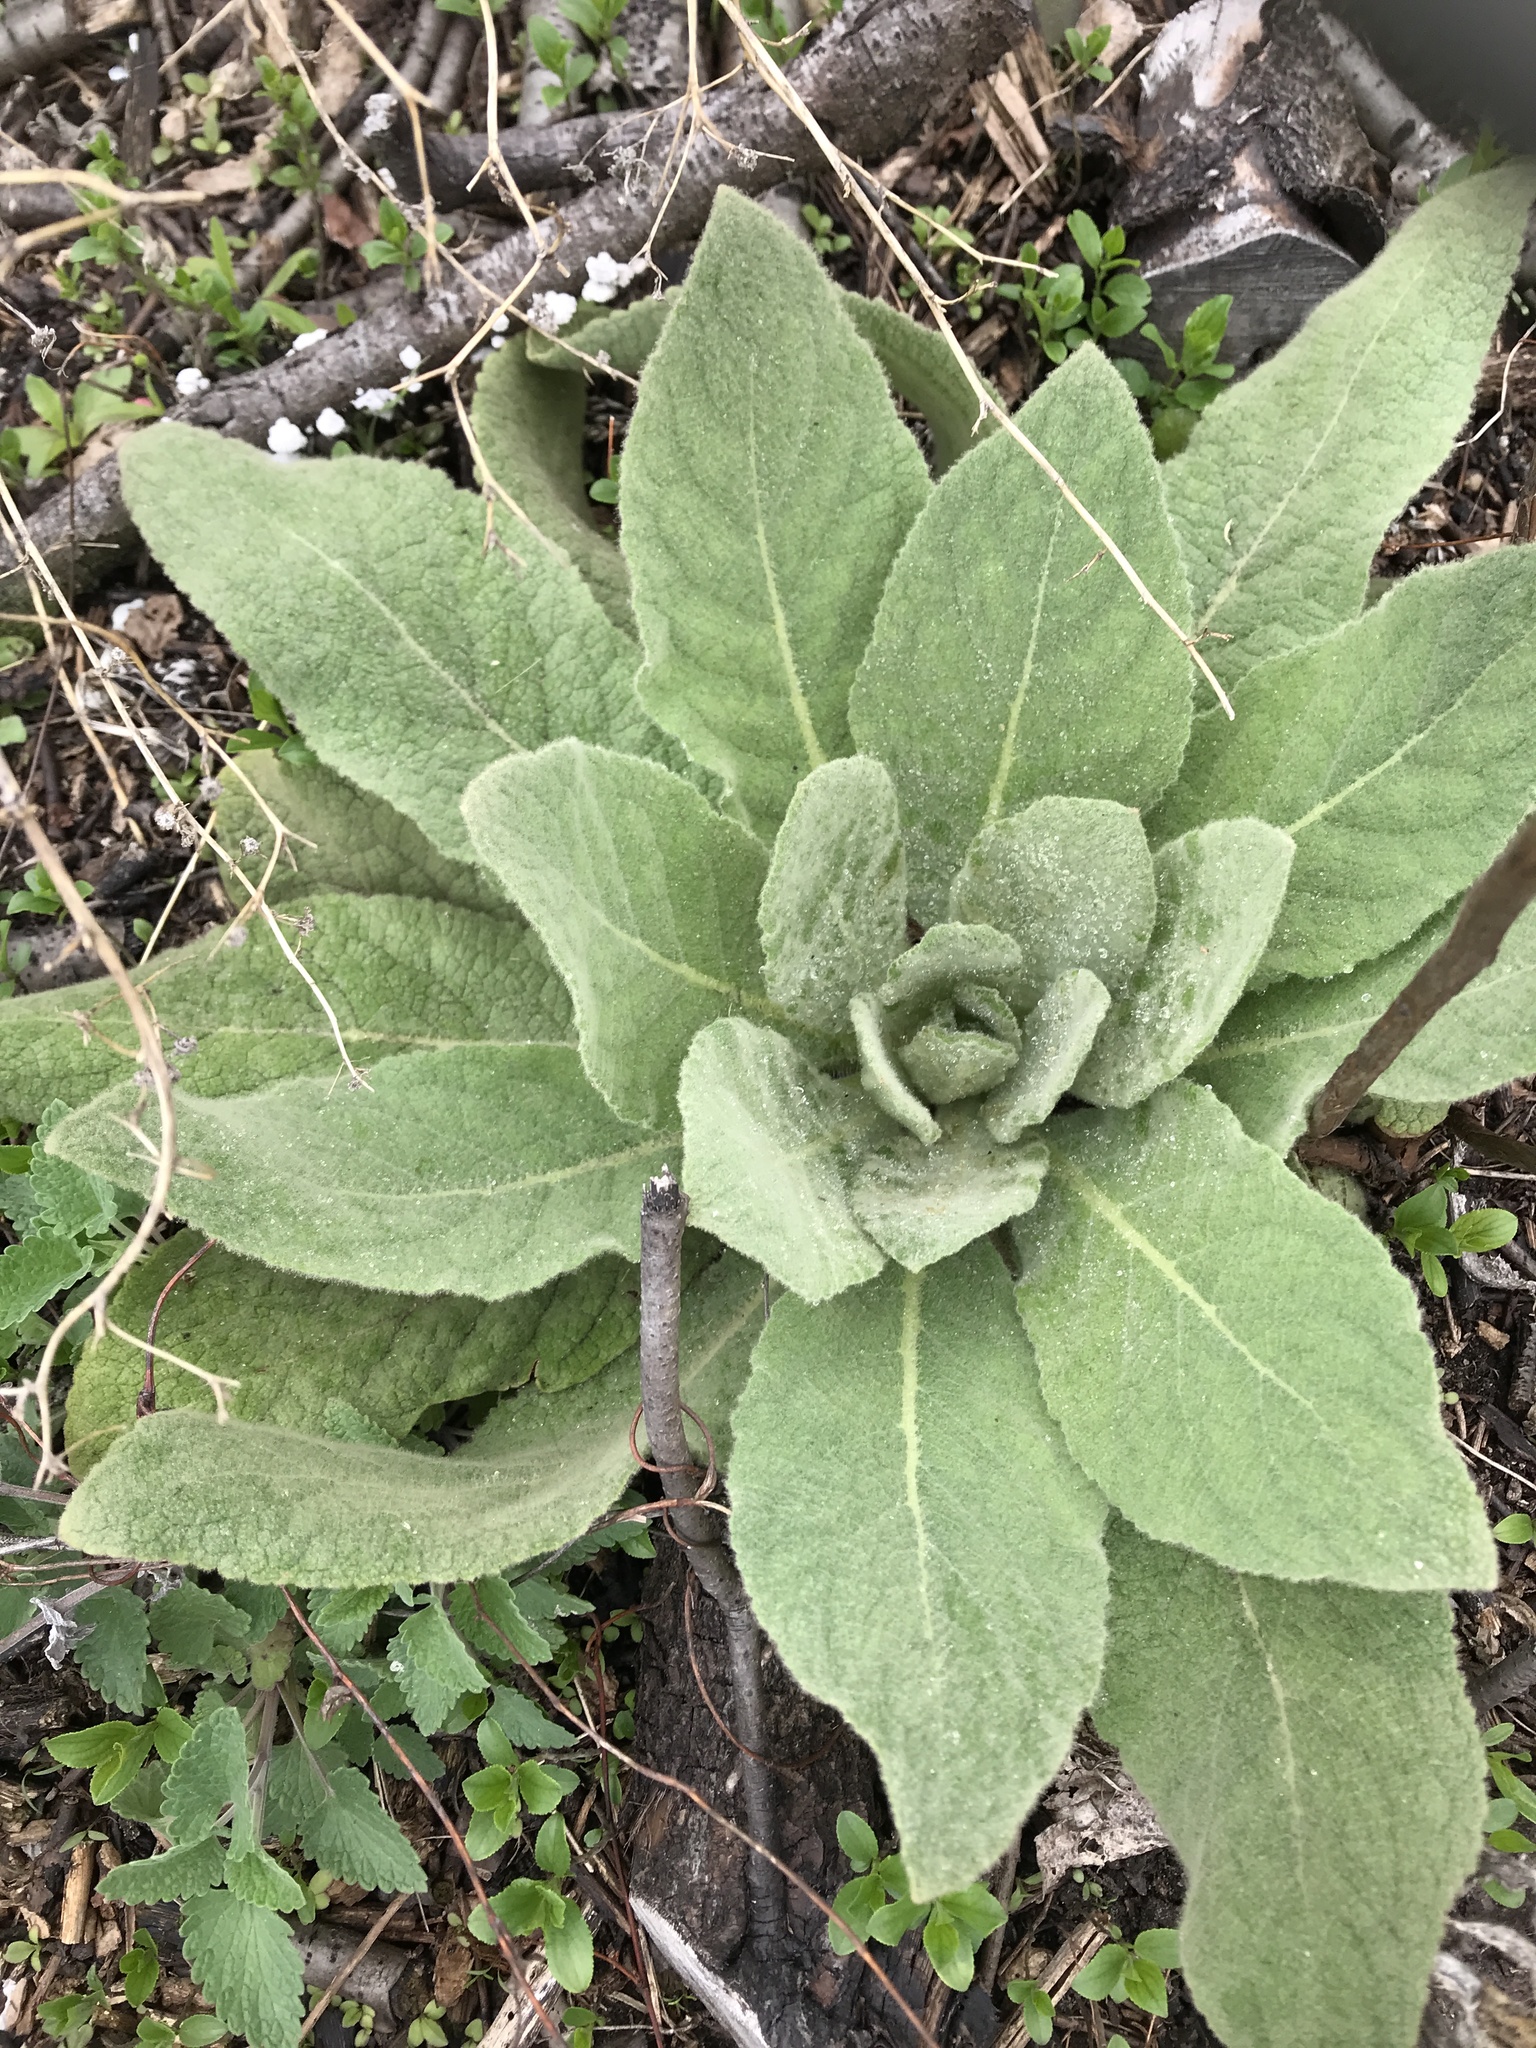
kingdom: Plantae
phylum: Tracheophyta
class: Magnoliopsida
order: Lamiales
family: Scrophulariaceae
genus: Verbascum
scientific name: Verbascum thapsus
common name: Common mullein
